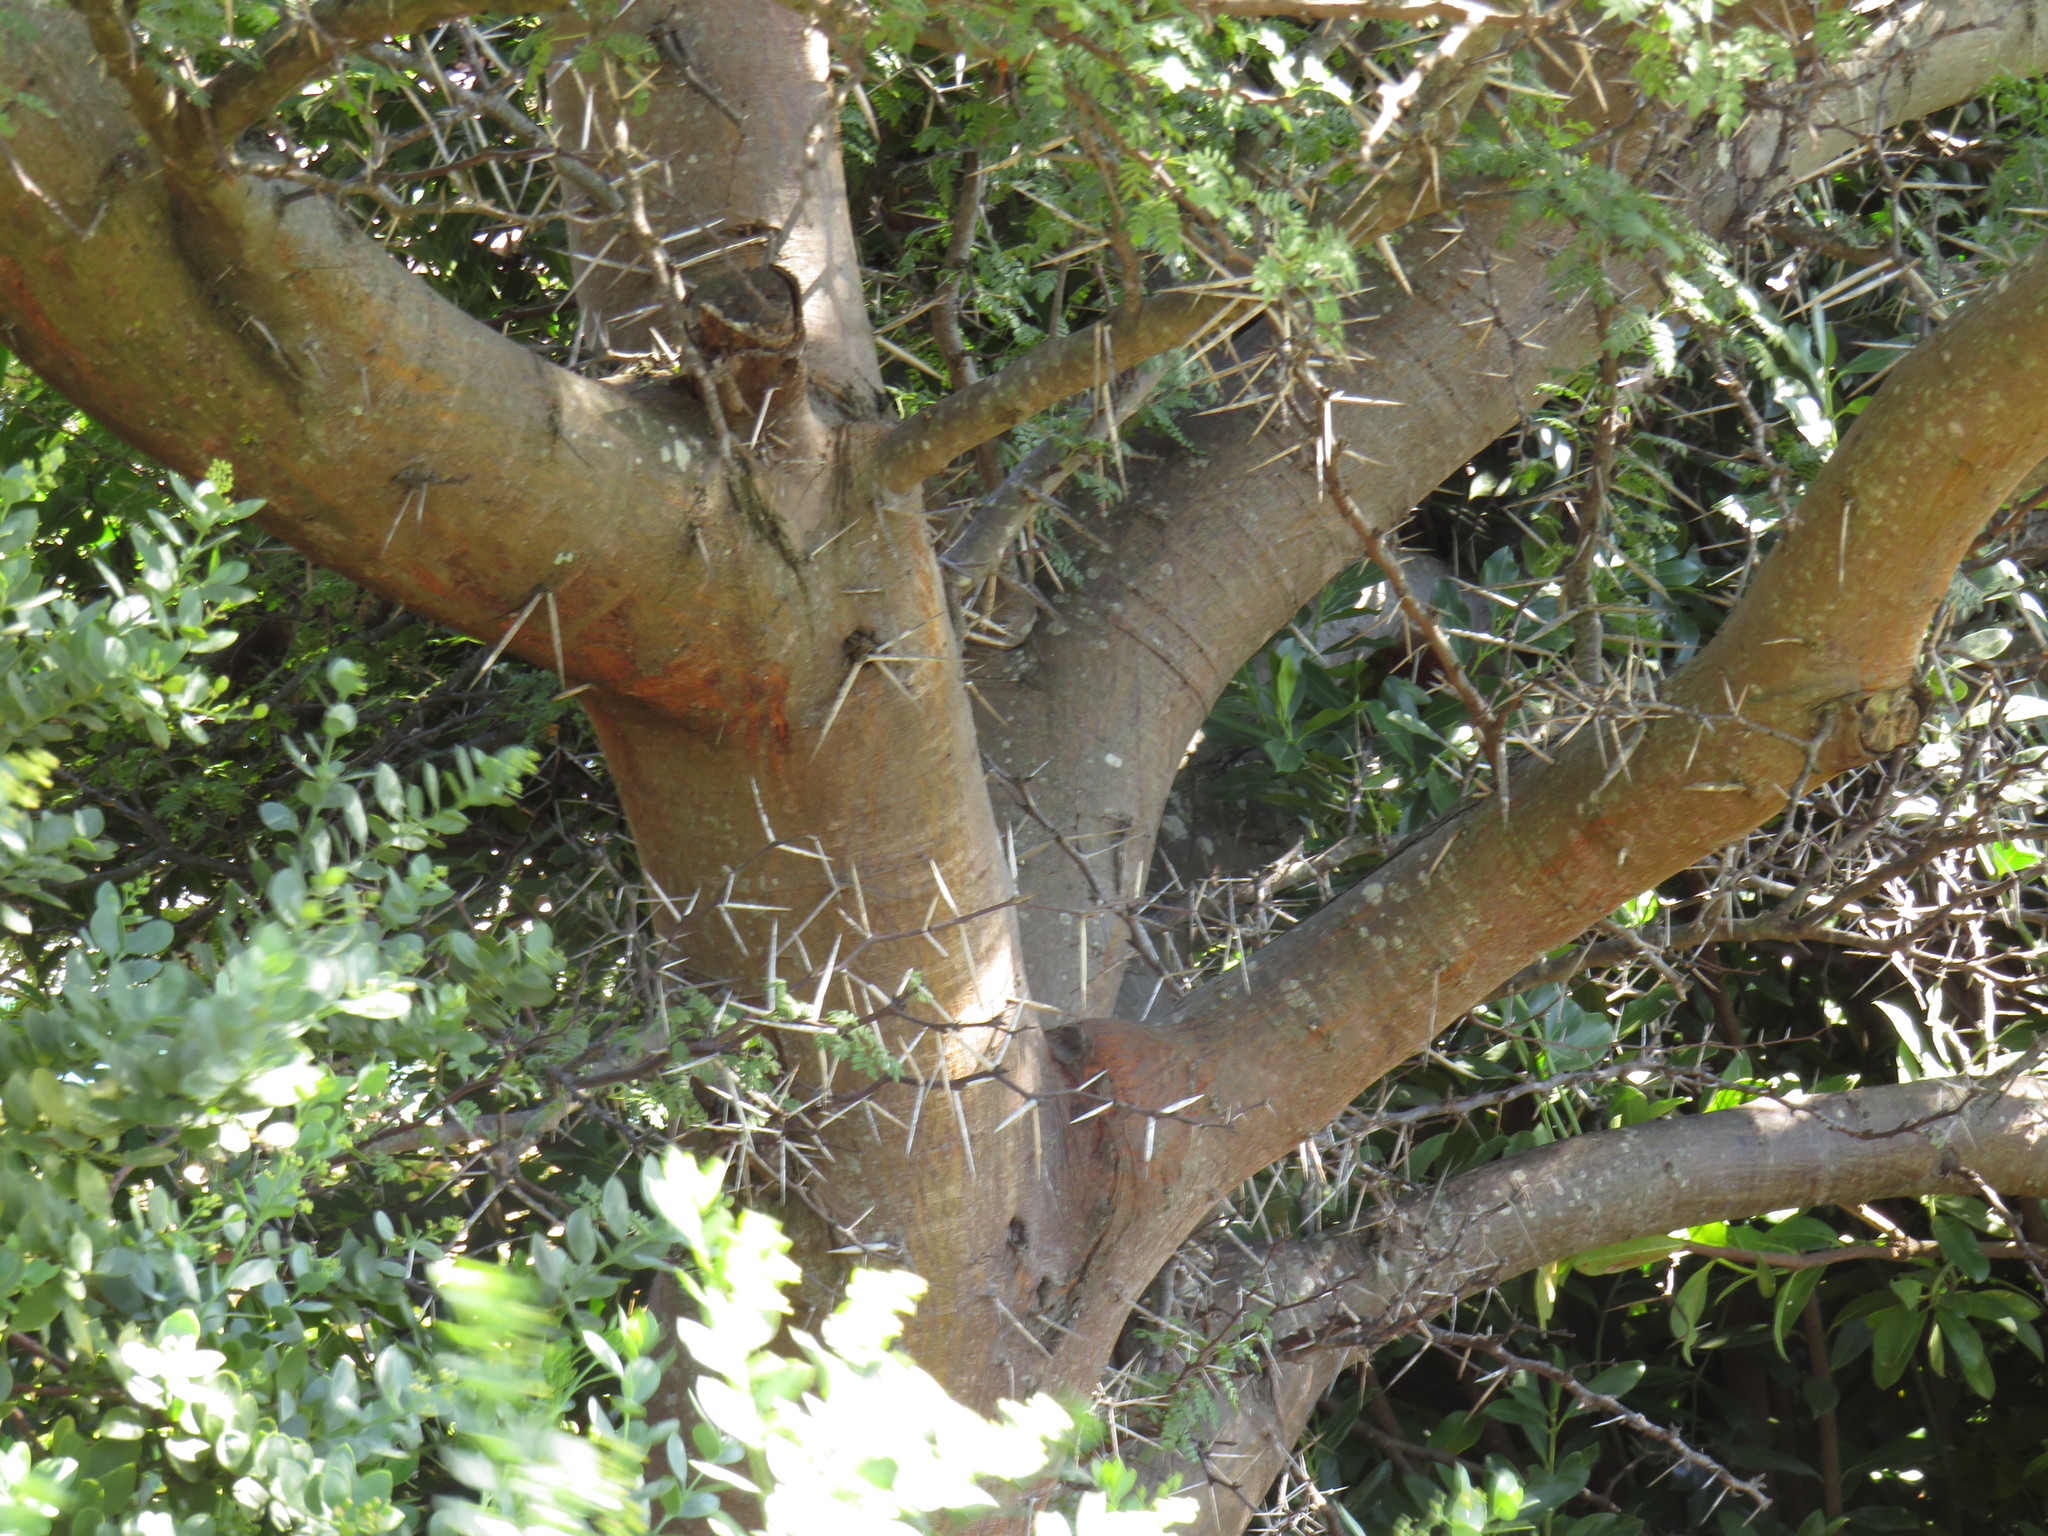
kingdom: Plantae
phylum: Tracheophyta
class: Magnoliopsida
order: Fabales
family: Fabaceae
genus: Vachellia
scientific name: Vachellia karroo
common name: Sweet thorn
